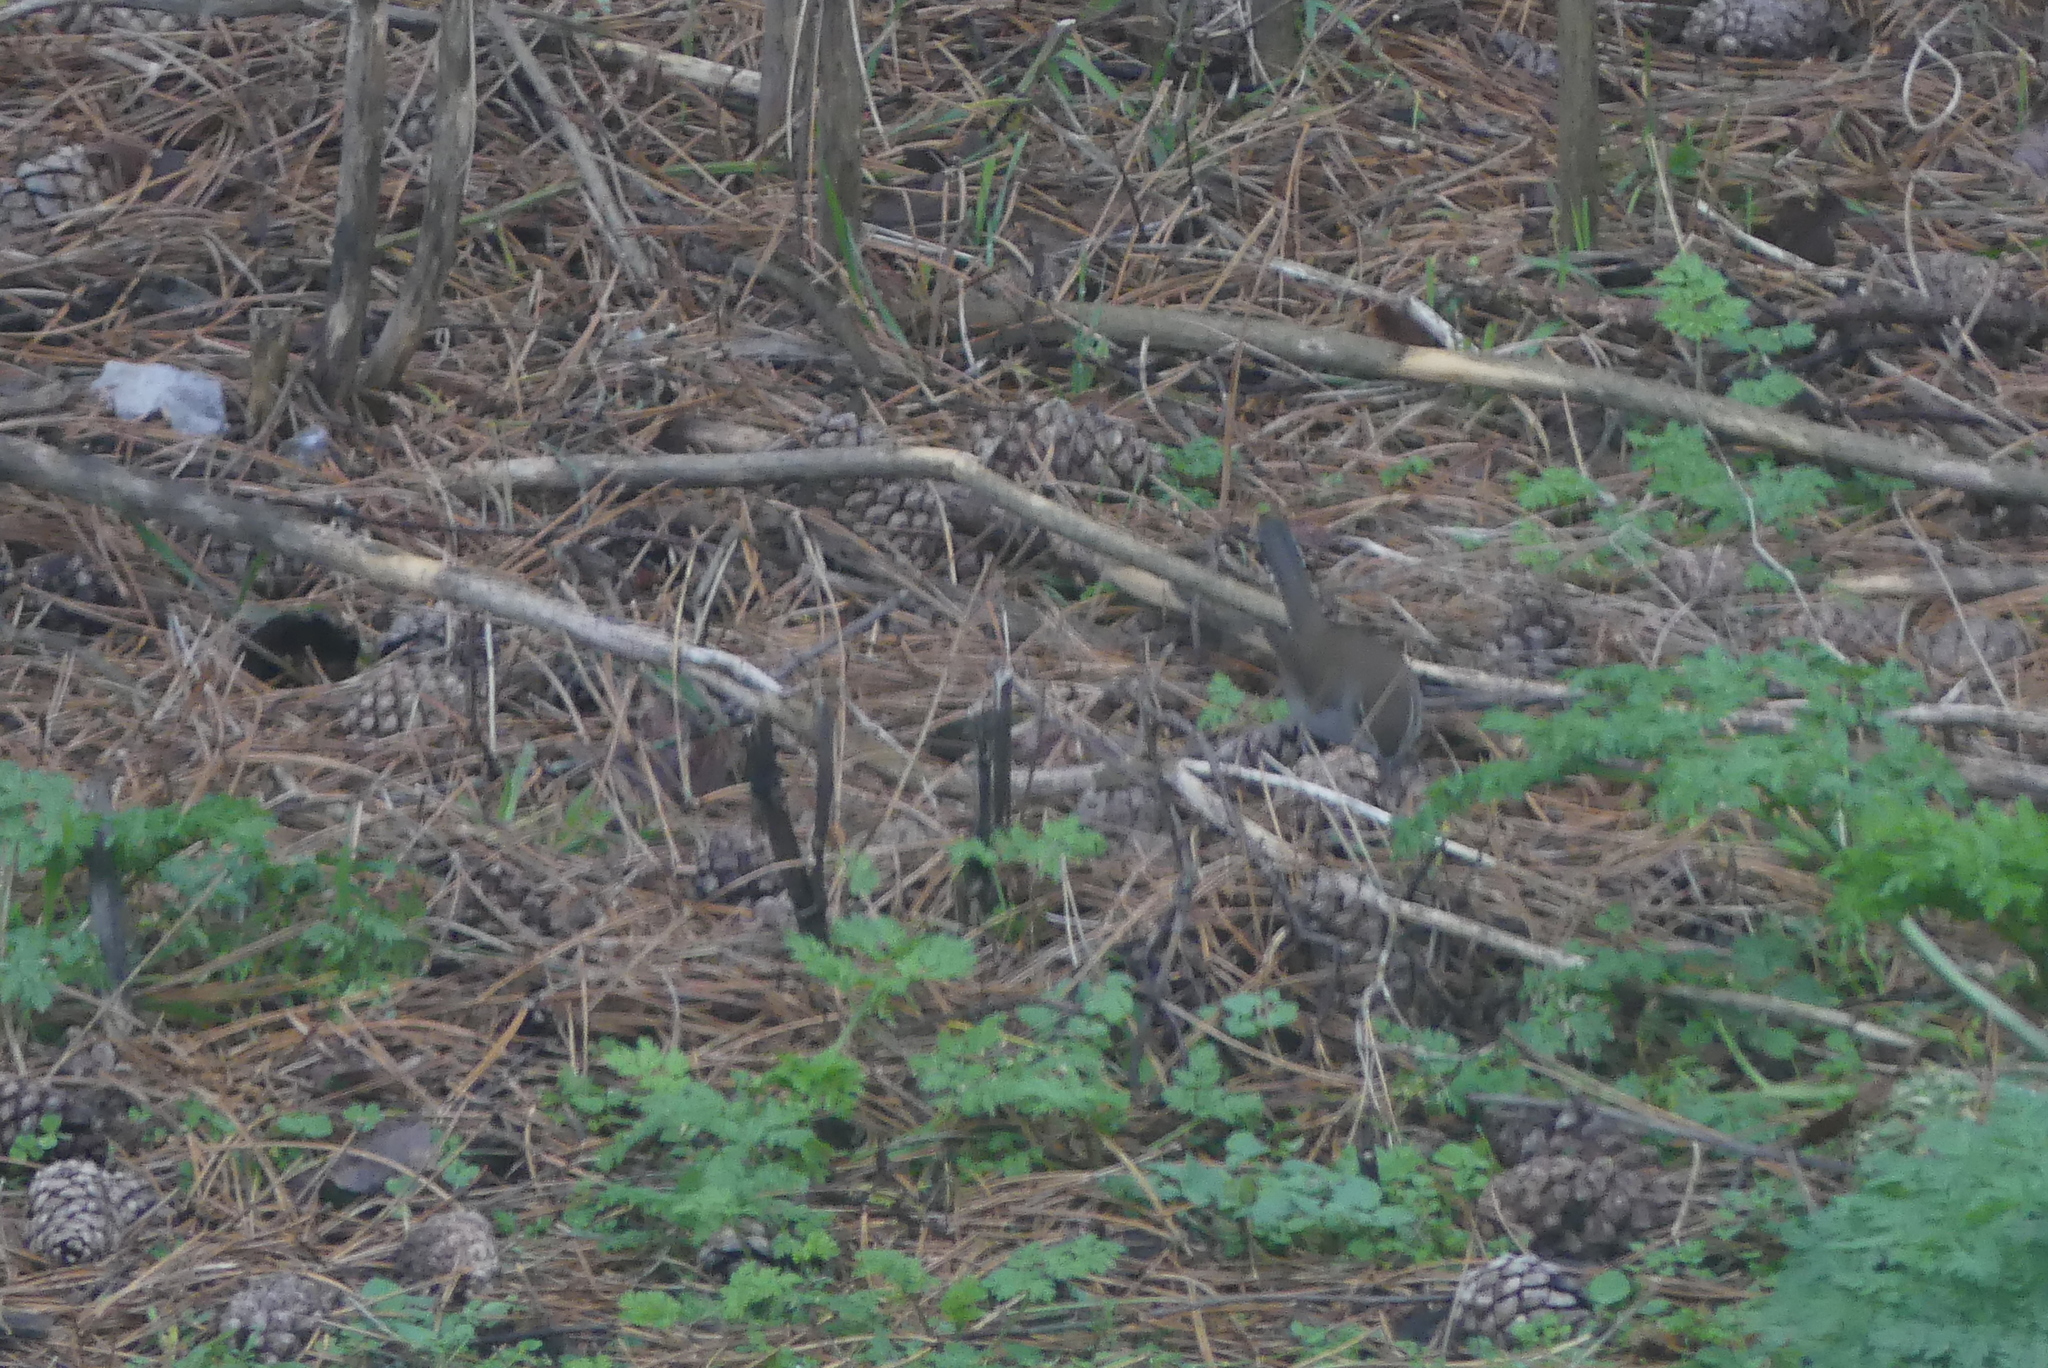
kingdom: Animalia
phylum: Chordata
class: Aves
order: Passeriformes
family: Troglodytidae
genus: Thryomanes
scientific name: Thryomanes bewickii
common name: Bewick's wren
